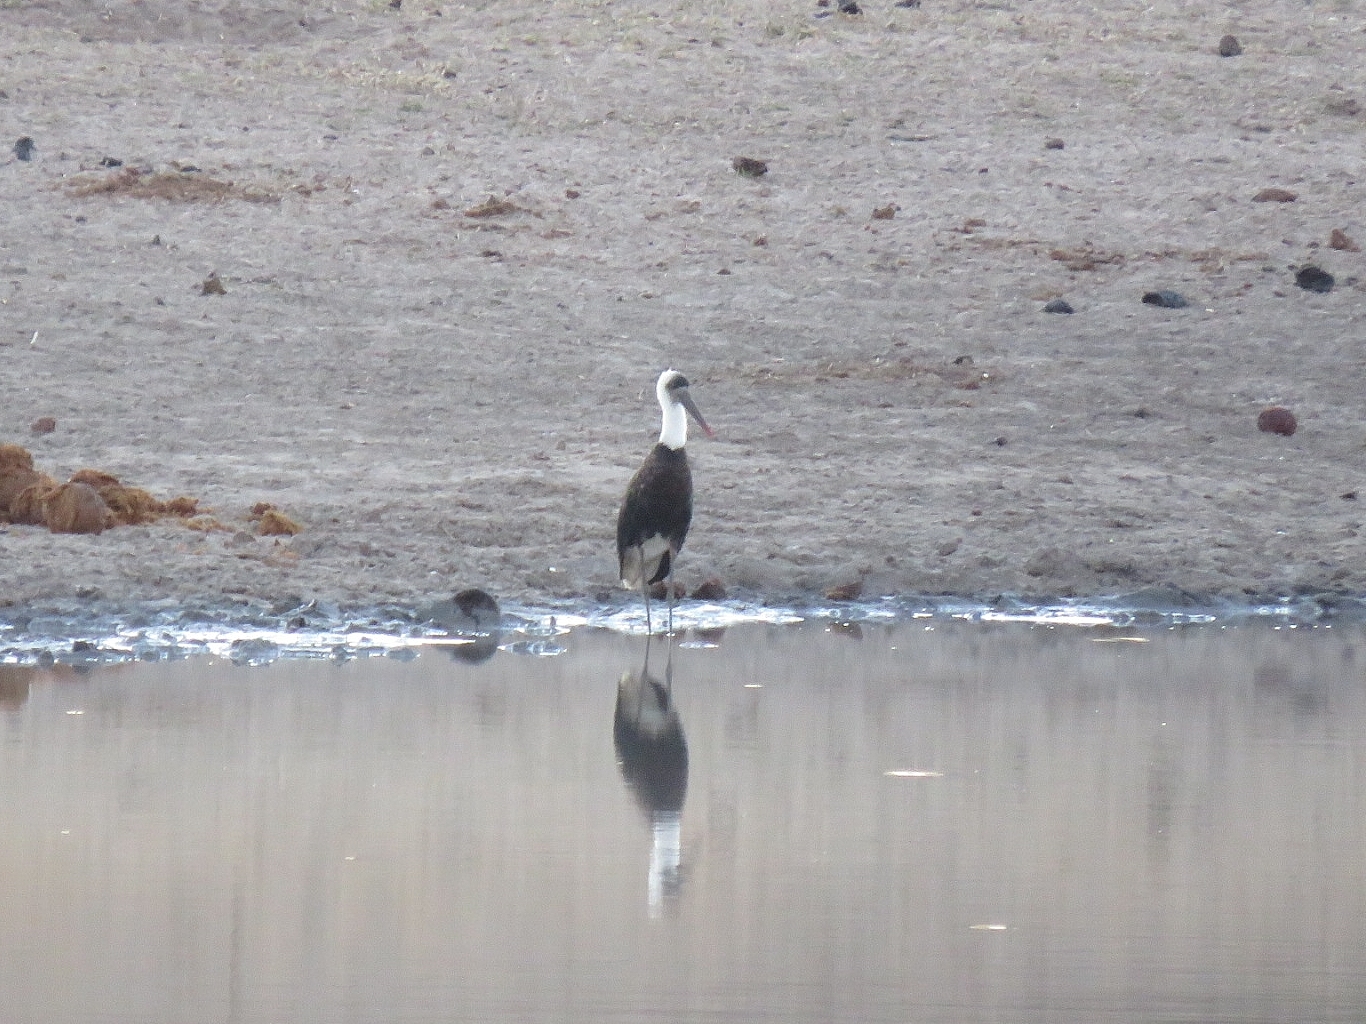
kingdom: Animalia
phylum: Chordata
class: Aves
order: Ciconiiformes
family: Ciconiidae
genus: Ciconia
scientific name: Ciconia microscelis
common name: African woollyneck
